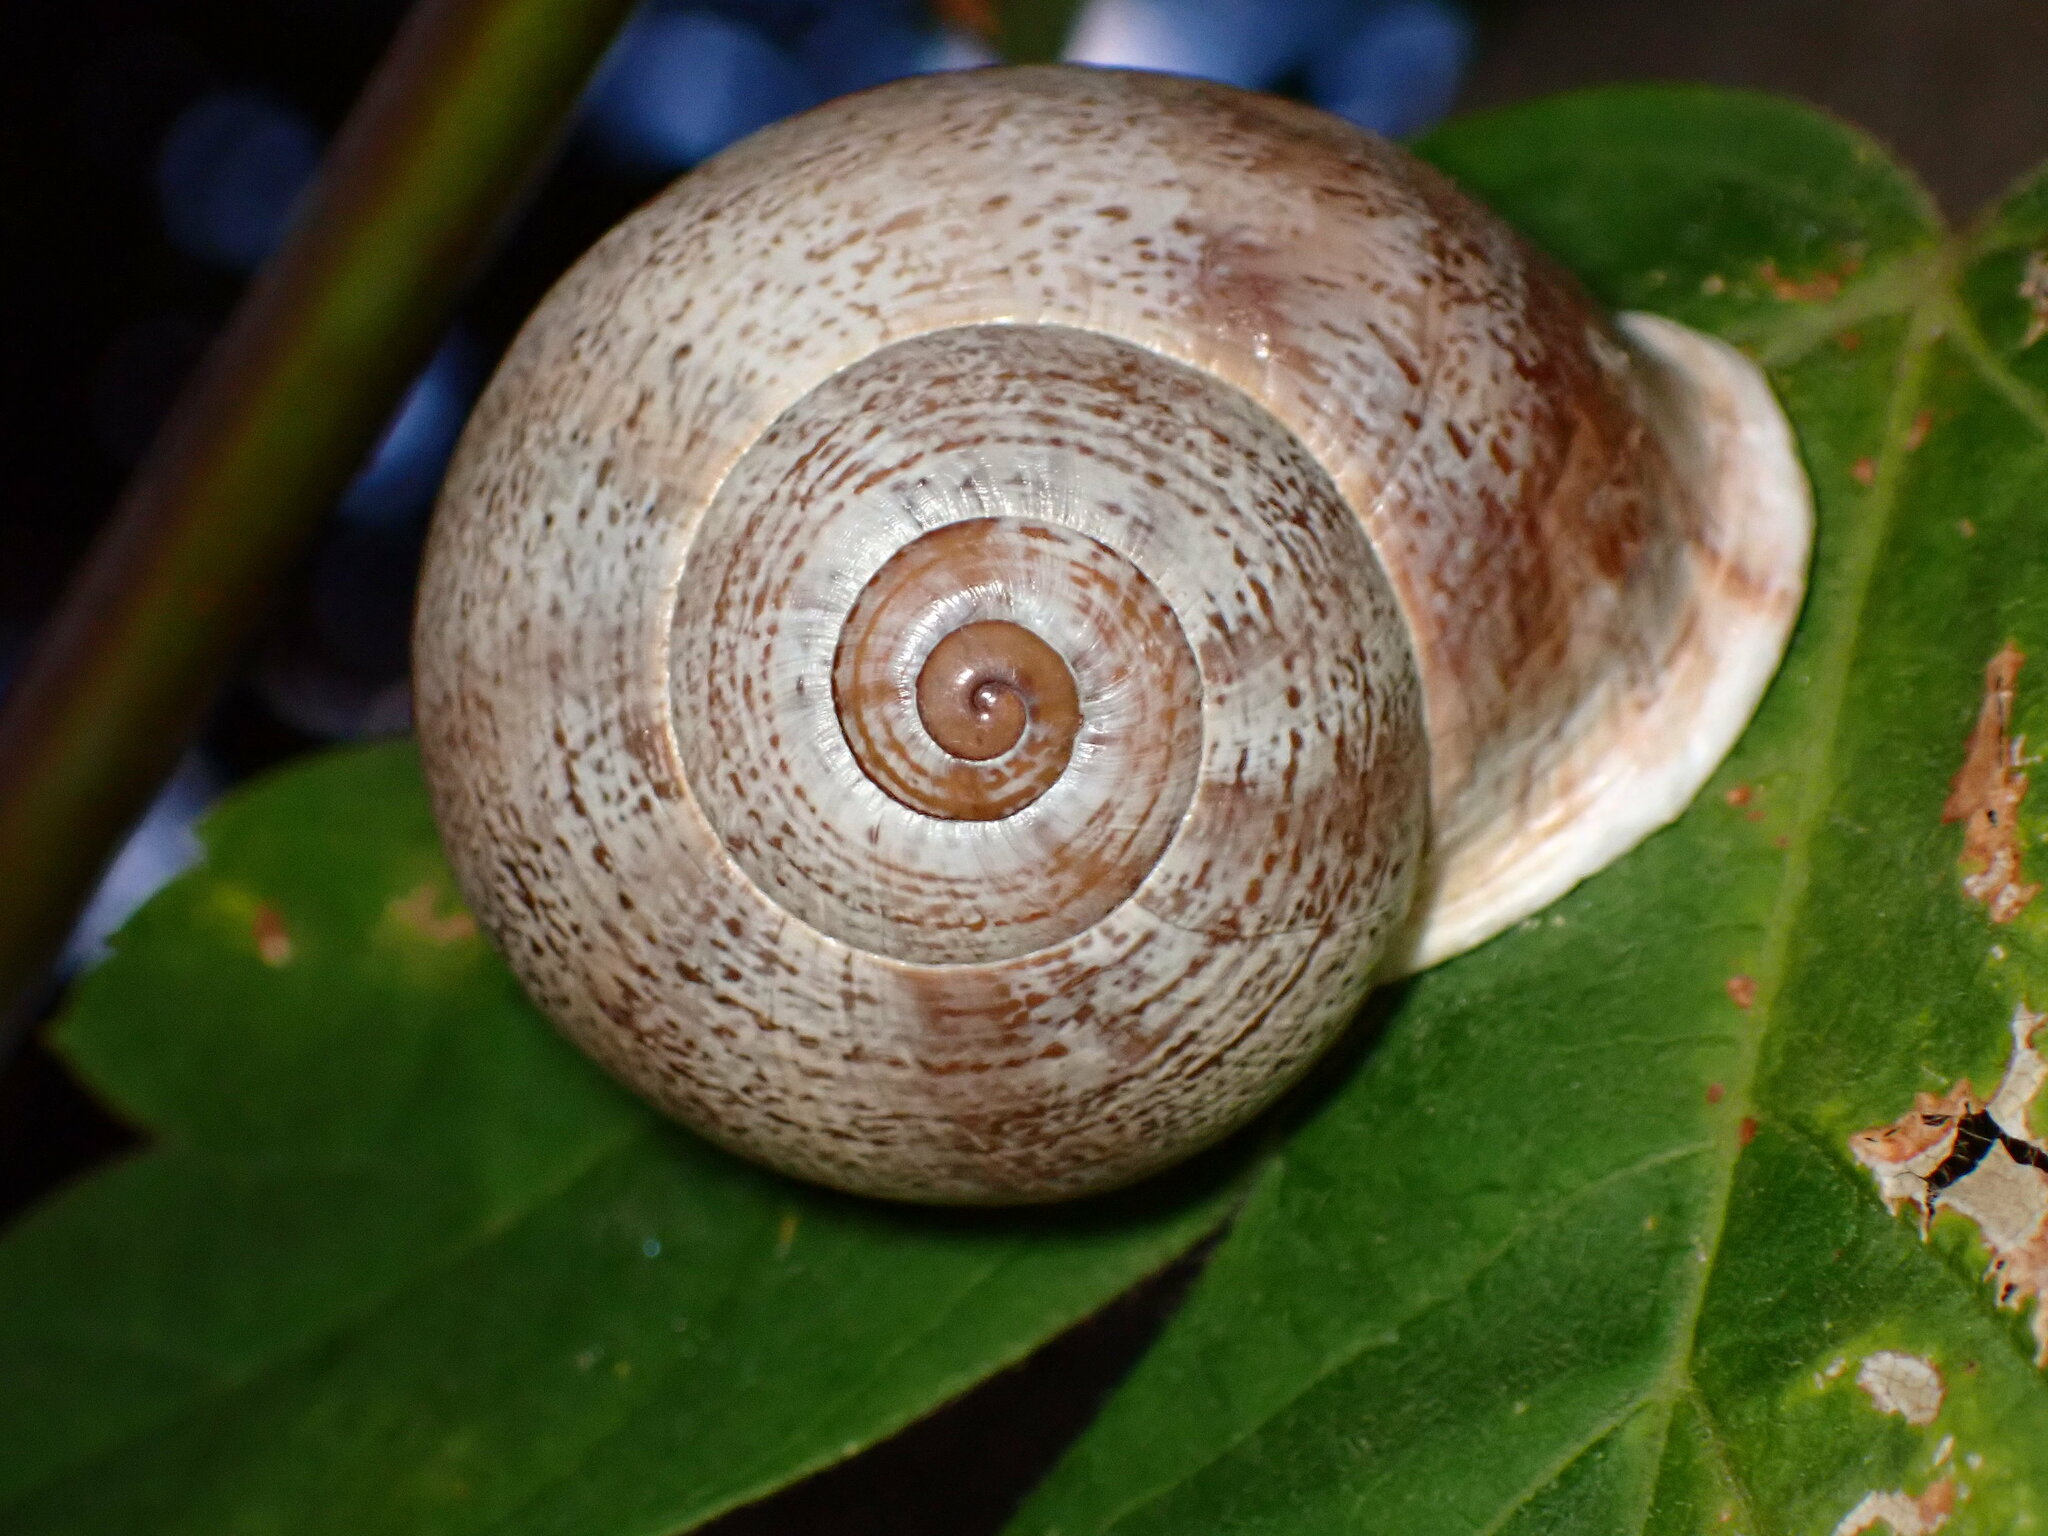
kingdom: Animalia
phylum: Mollusca
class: Gastropoda
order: Stylommatophora
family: Helicidae
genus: Otala
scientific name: Otala lactea
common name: Milk snail
